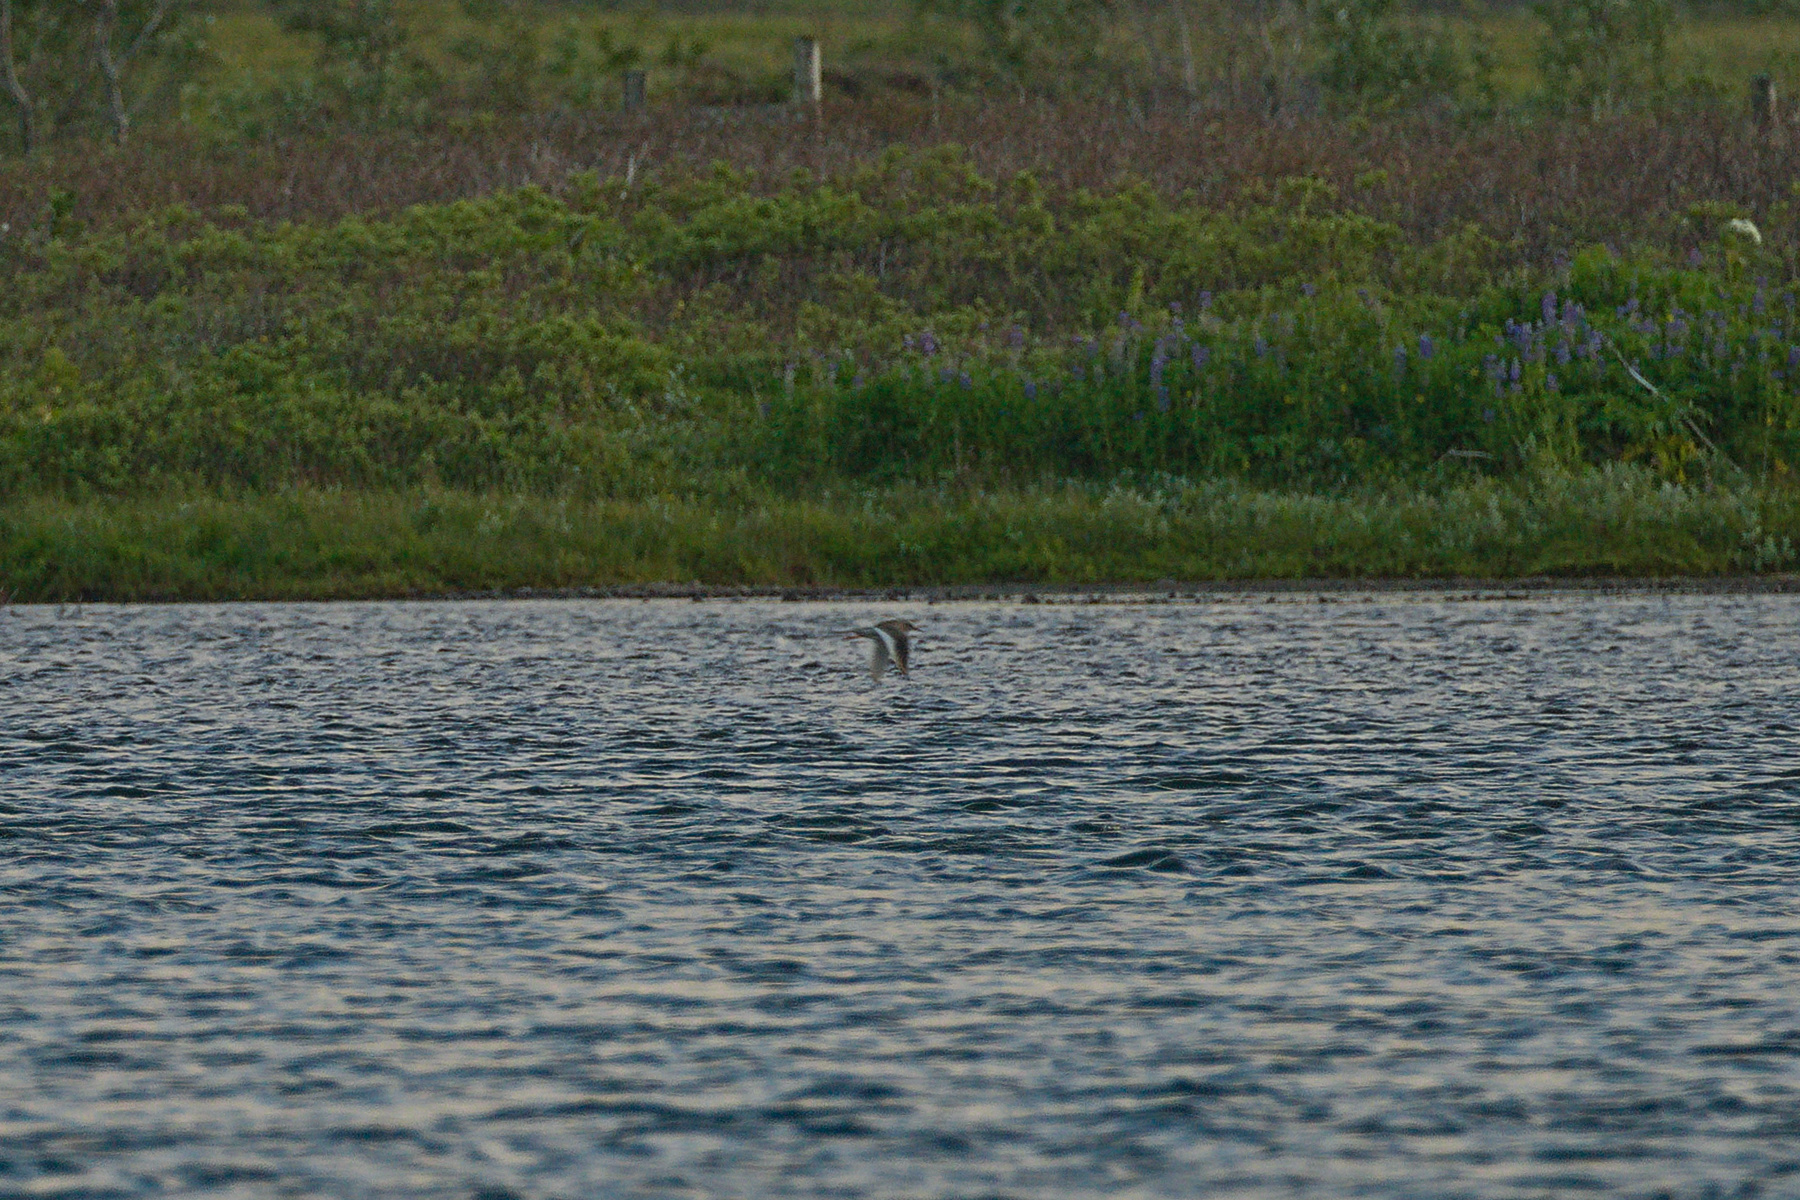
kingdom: Animalia
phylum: Chordata
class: Aves
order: Charadriiformes
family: Scolopacidae
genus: Tringa
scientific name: Tringa totanus
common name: Common redshank
